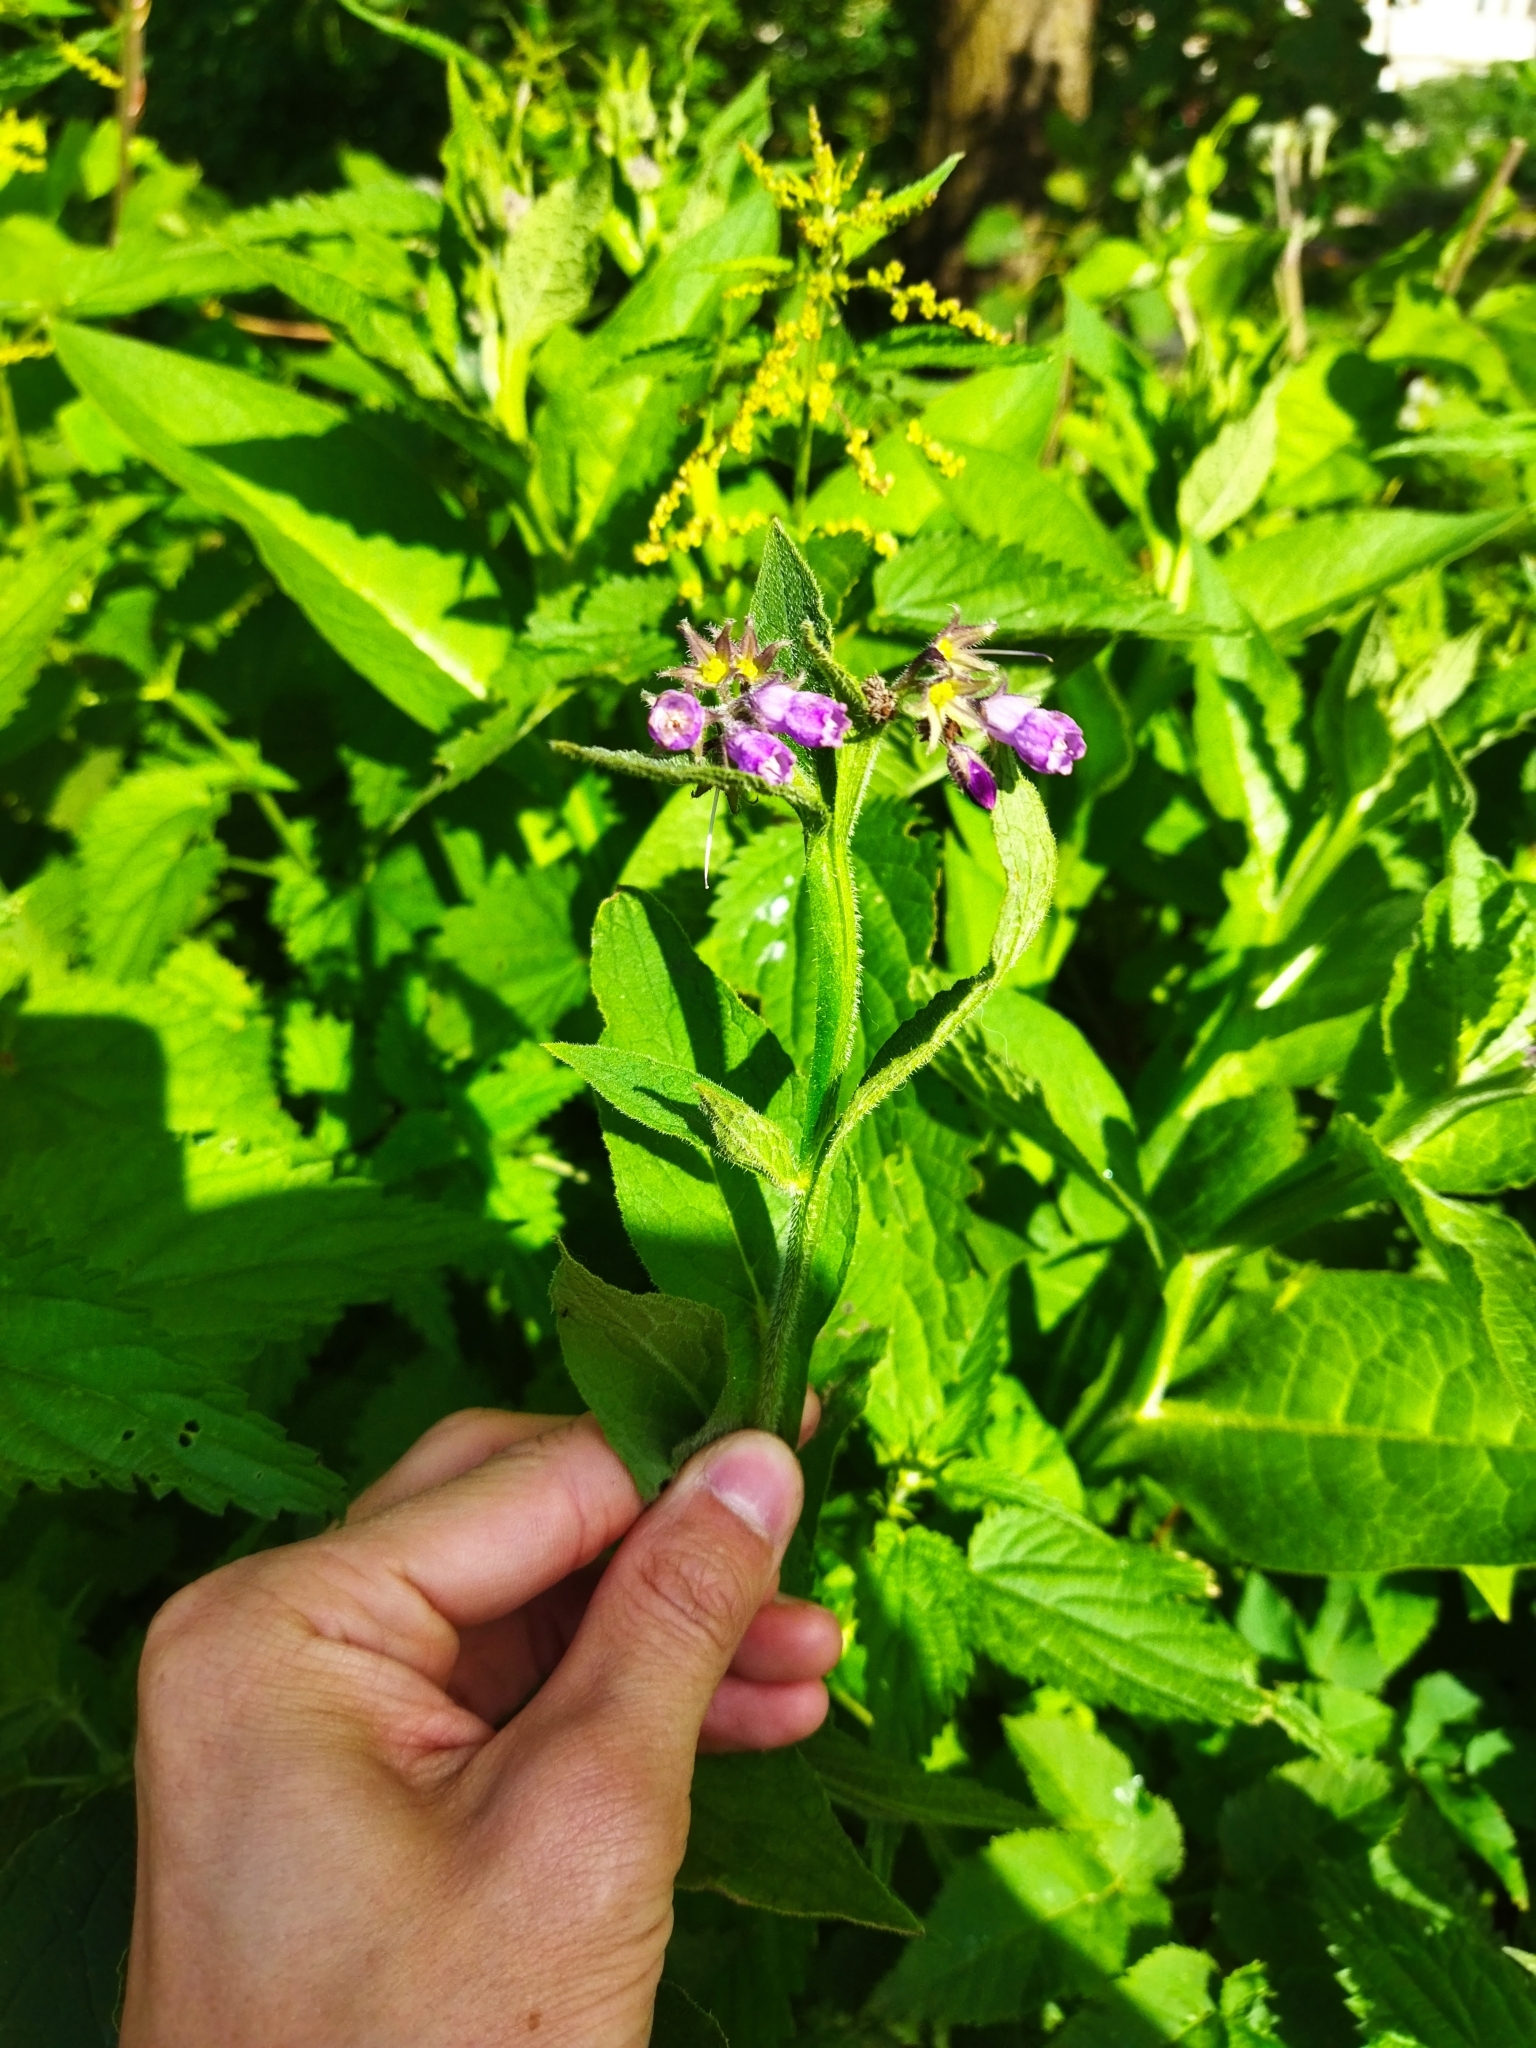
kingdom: Plantae
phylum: Tracheophyta
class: Magnoliopsida
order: Boraginales
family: Boraginaceae
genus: Symphytum
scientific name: Symphytum officinale
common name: Common comfrey
